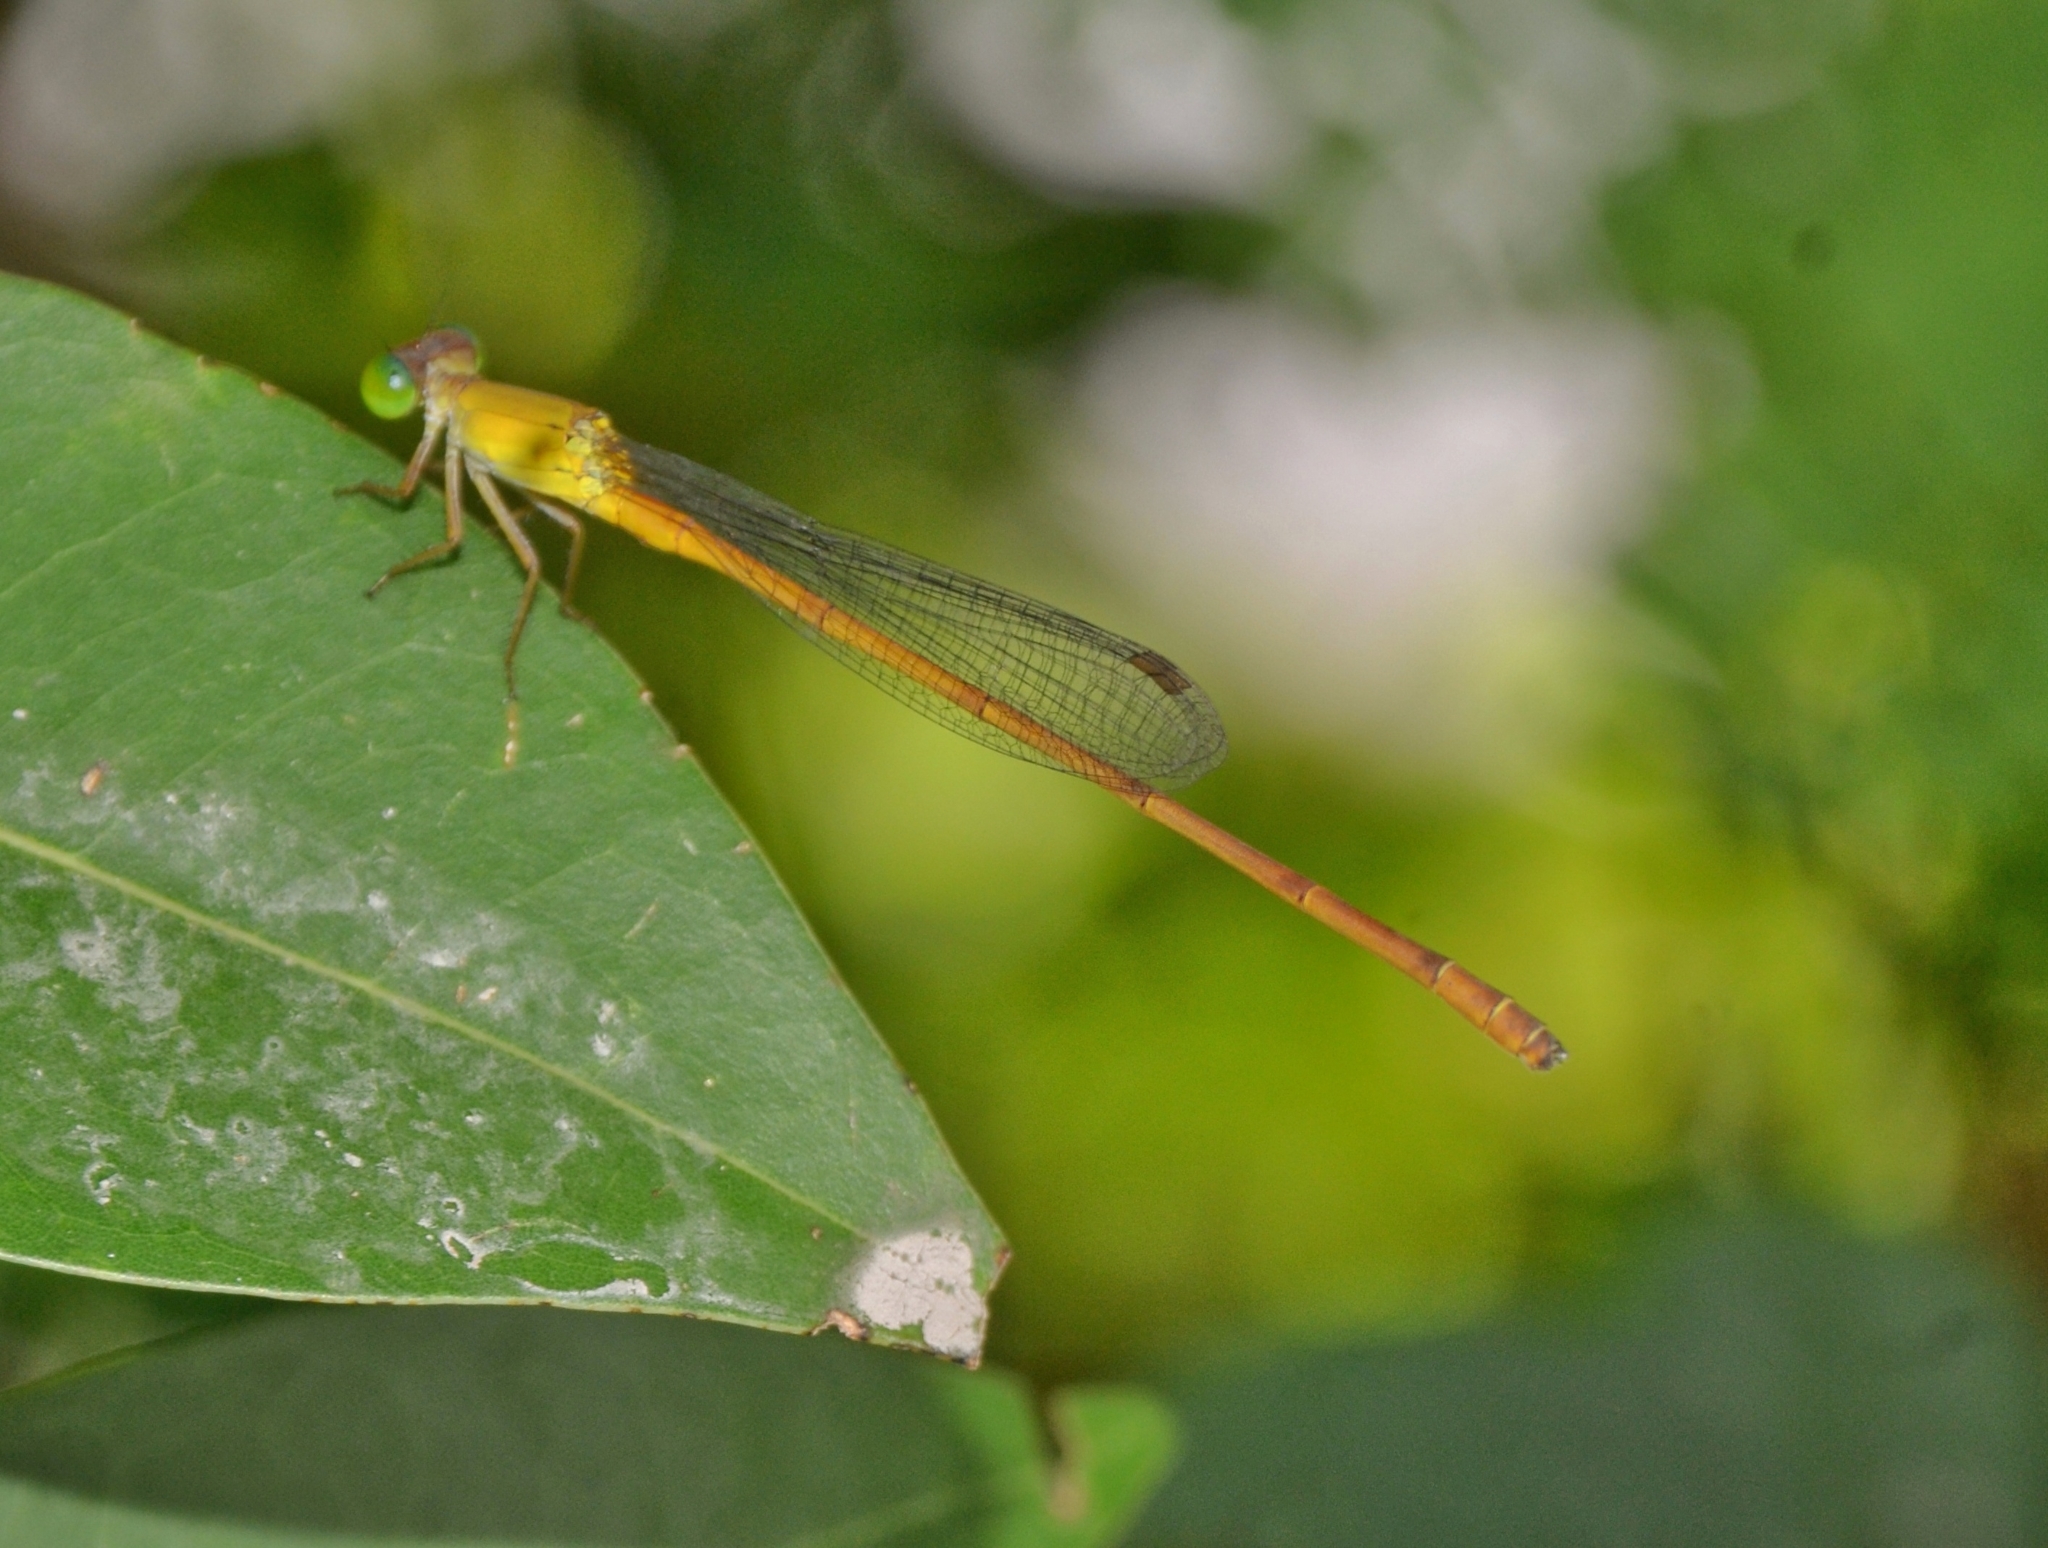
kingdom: Animalia
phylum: Arthropoda
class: Insecta
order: Odonata
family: Coenagrionidae
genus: Ceriagrion
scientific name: Ceriagrion rubiae
